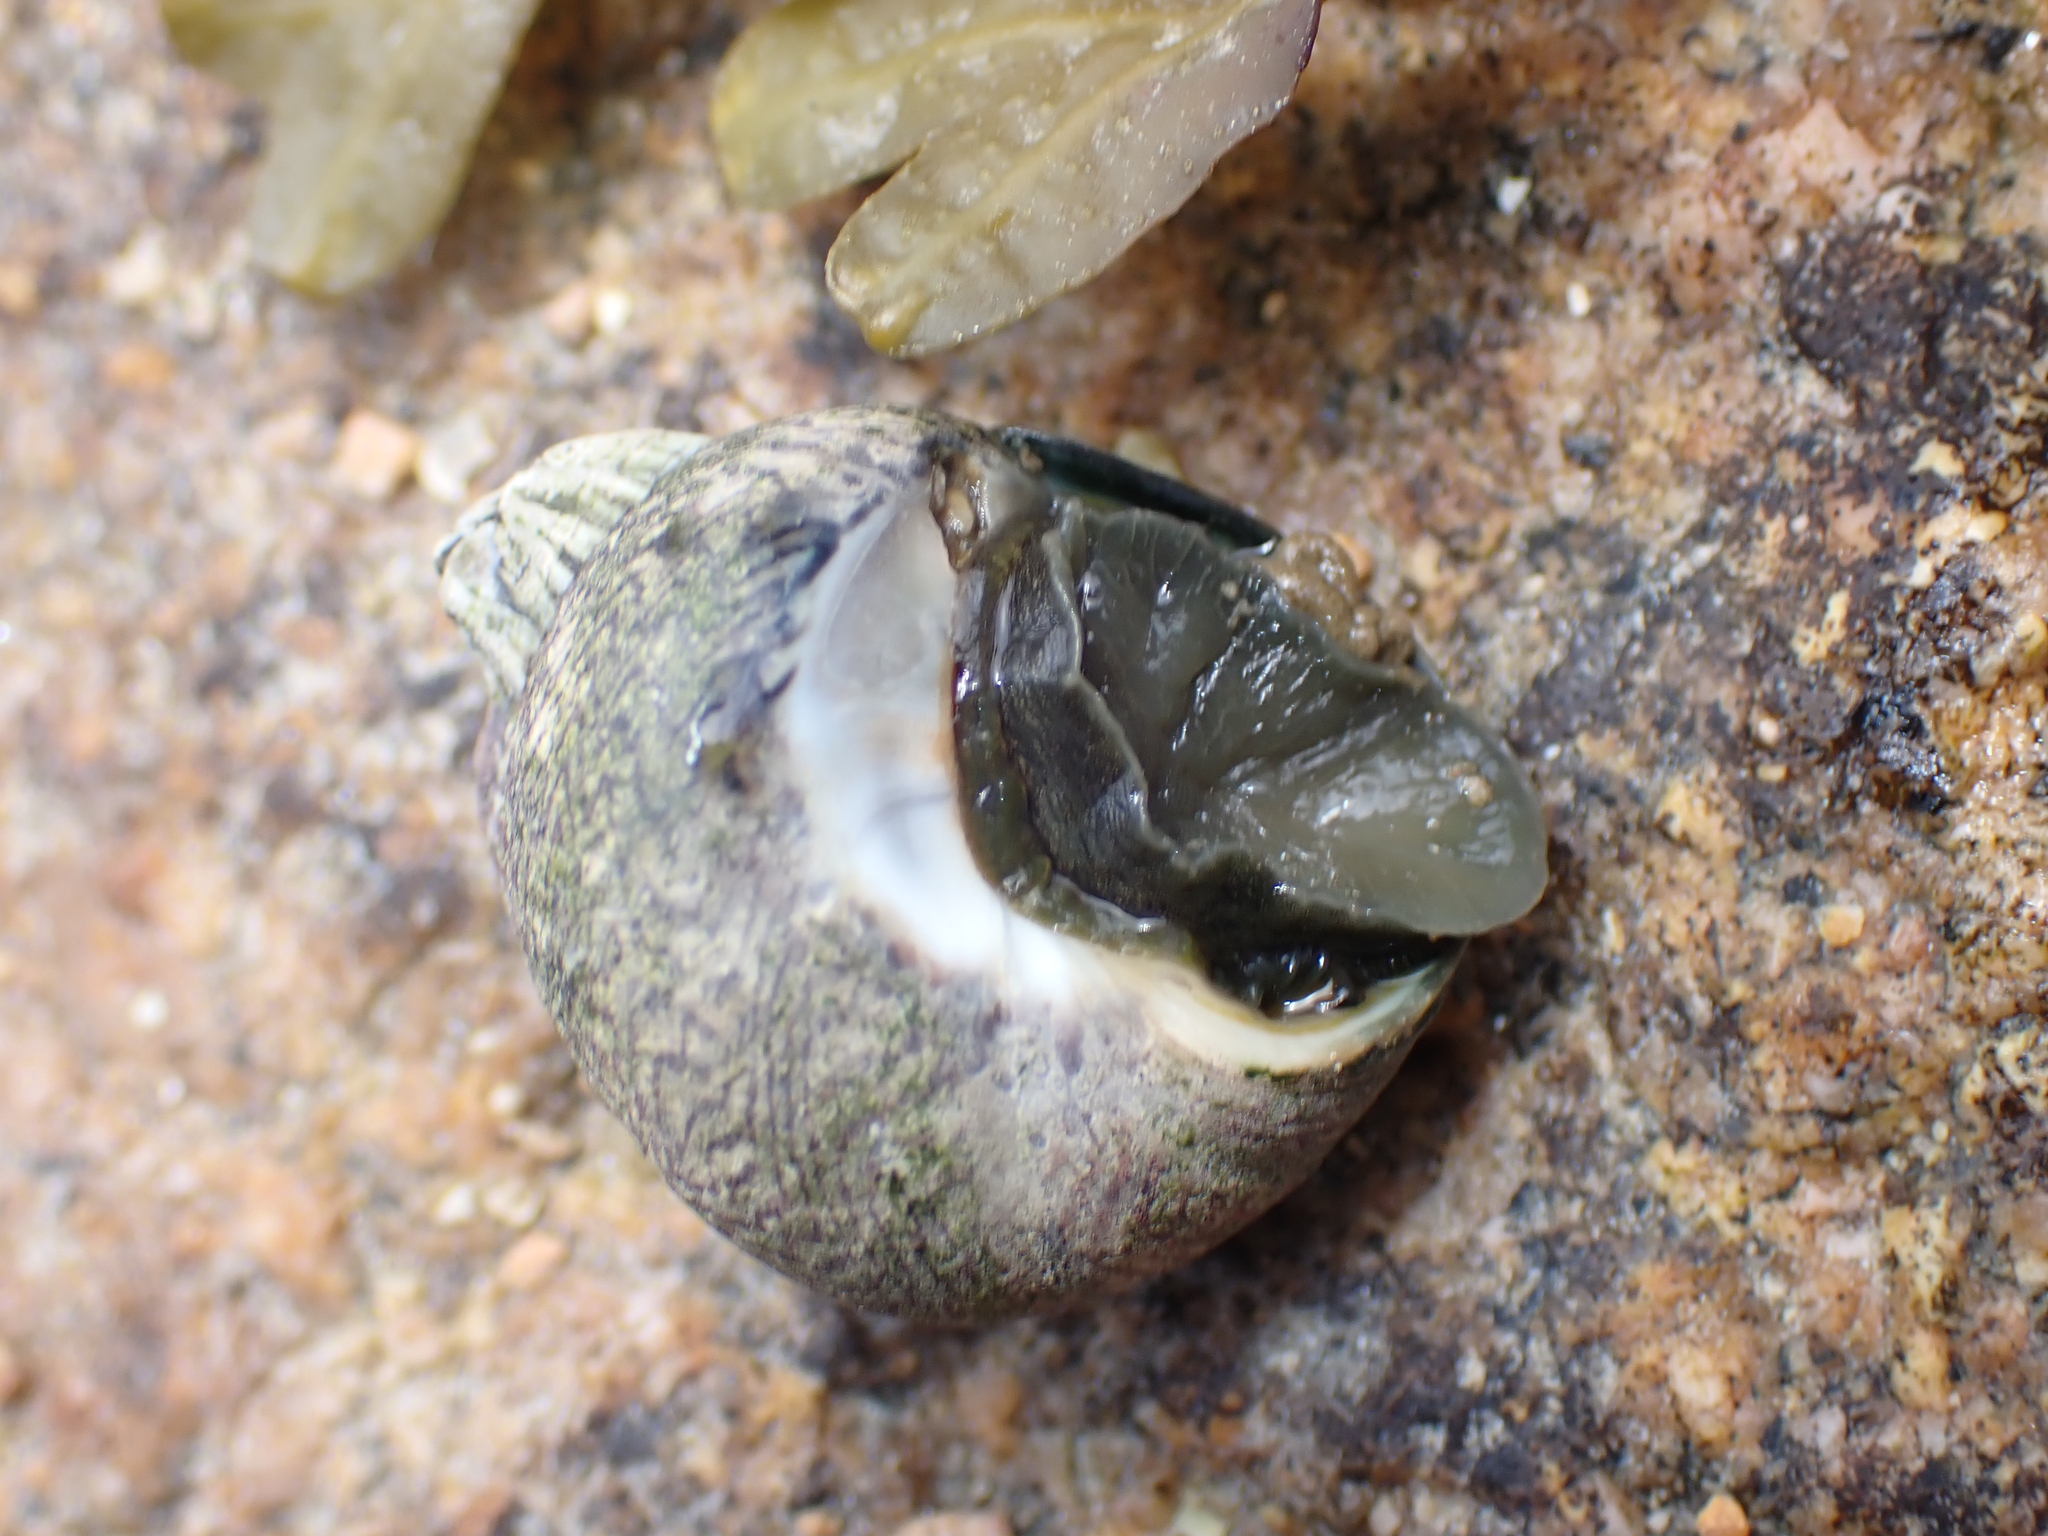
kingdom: Animalia
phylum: Mollusca
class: Gastropoda
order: Trochida
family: Trochidae
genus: Phorcus
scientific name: Phorcus lineatus
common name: Toothed top shell
